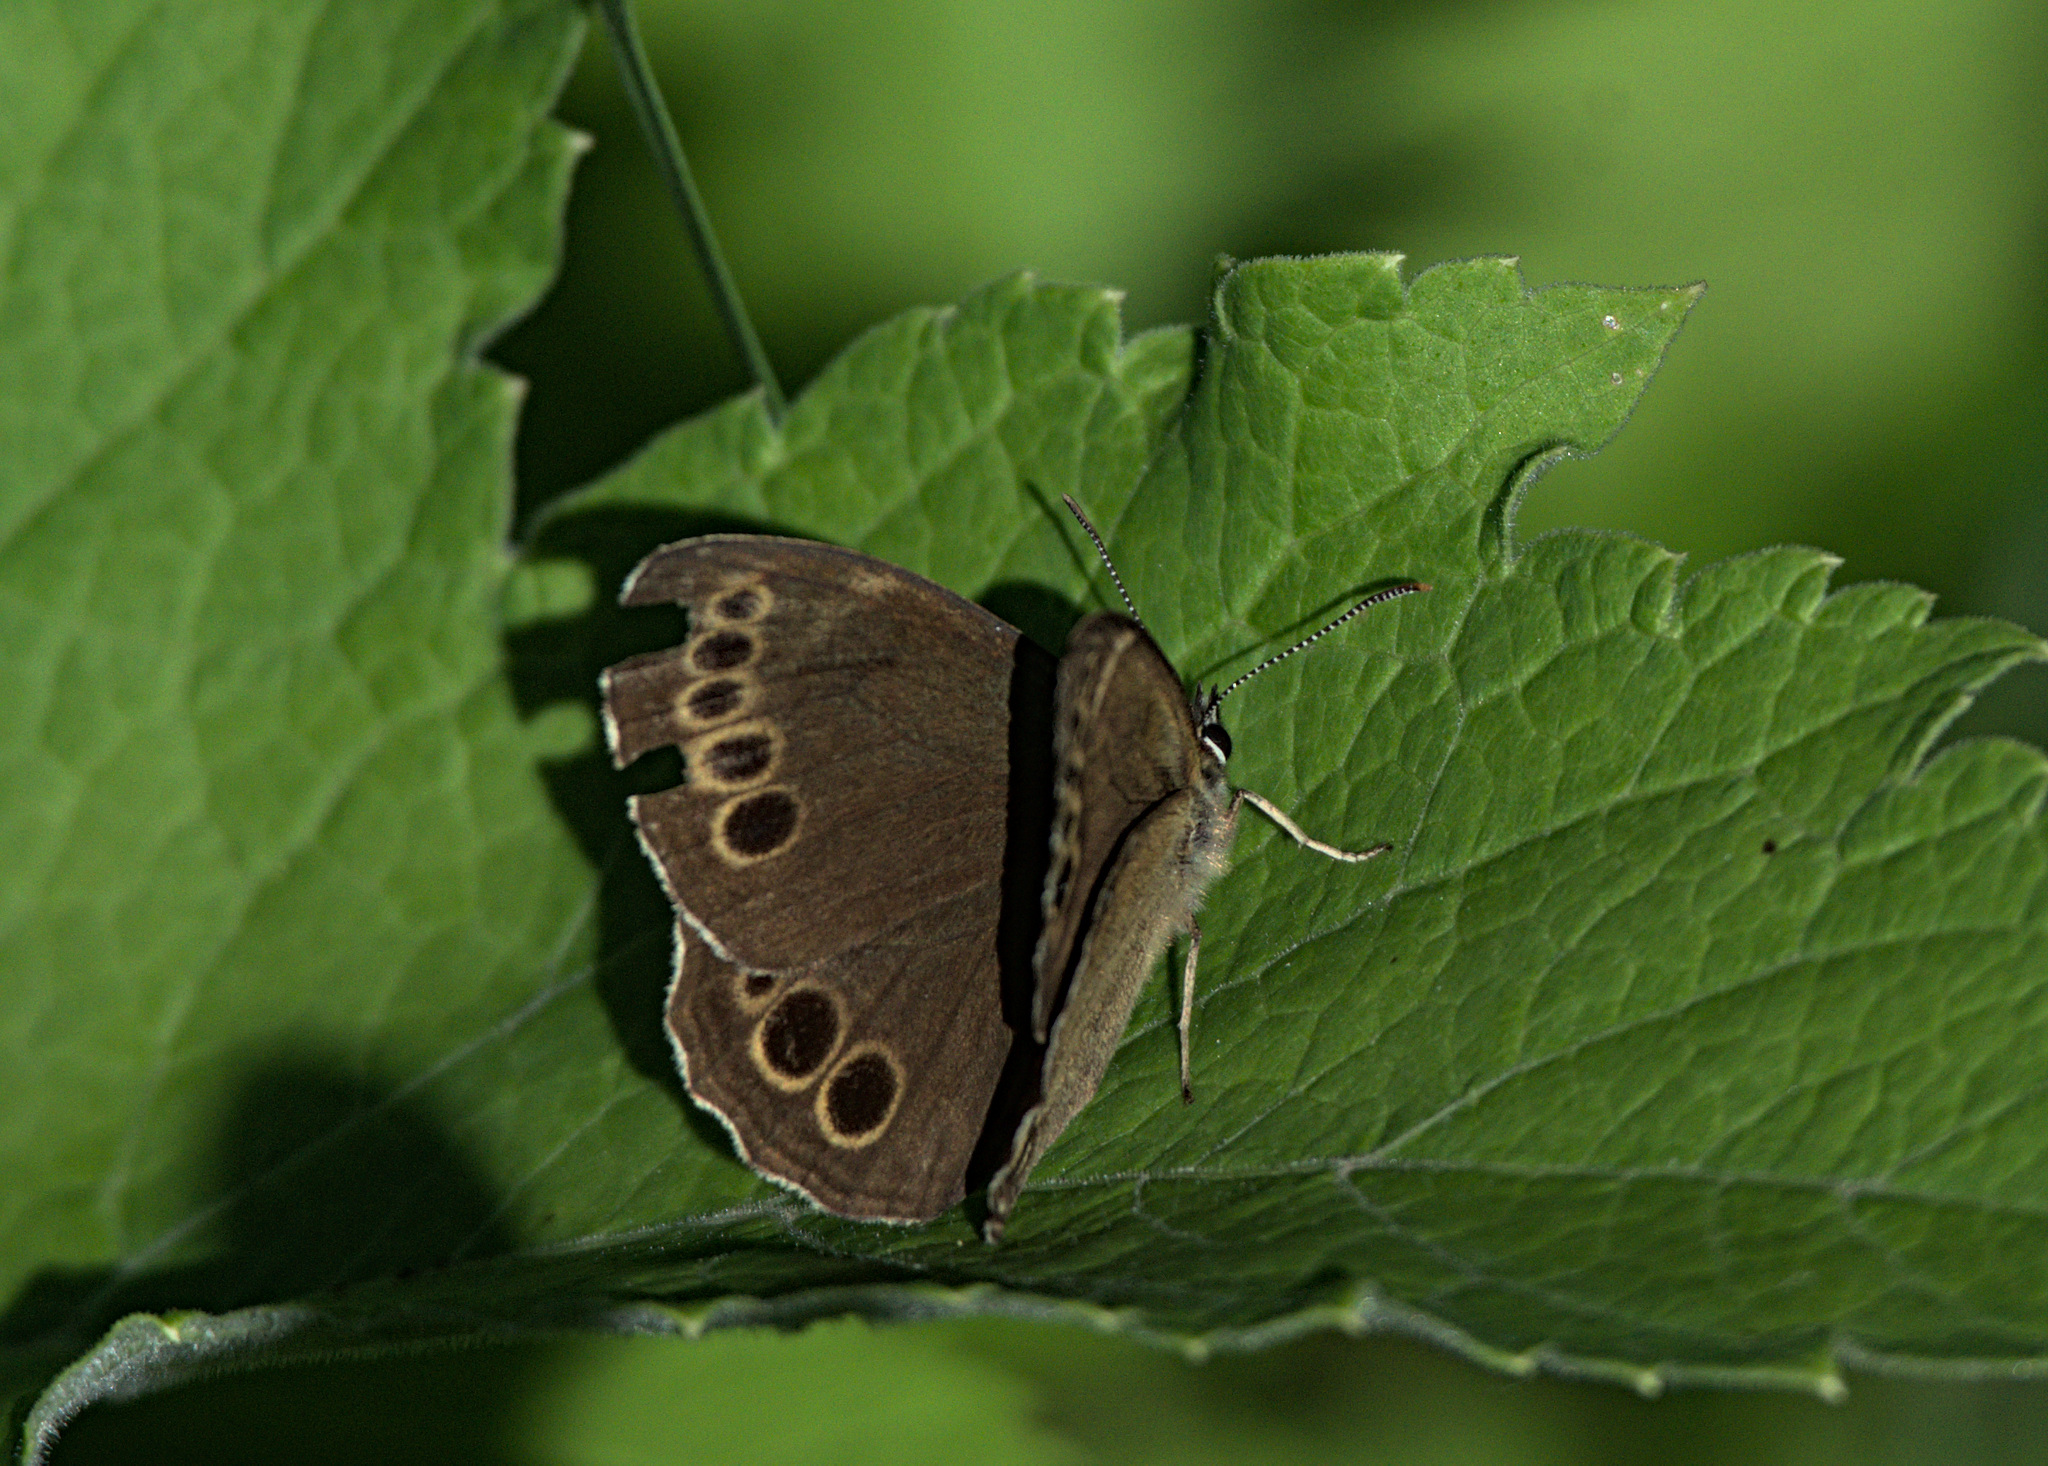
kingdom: Animalia
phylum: Arthropoda
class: Insecta
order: Lepidoptera
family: Nymphalidae
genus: Pararge
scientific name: Pararge Lopinga achine
